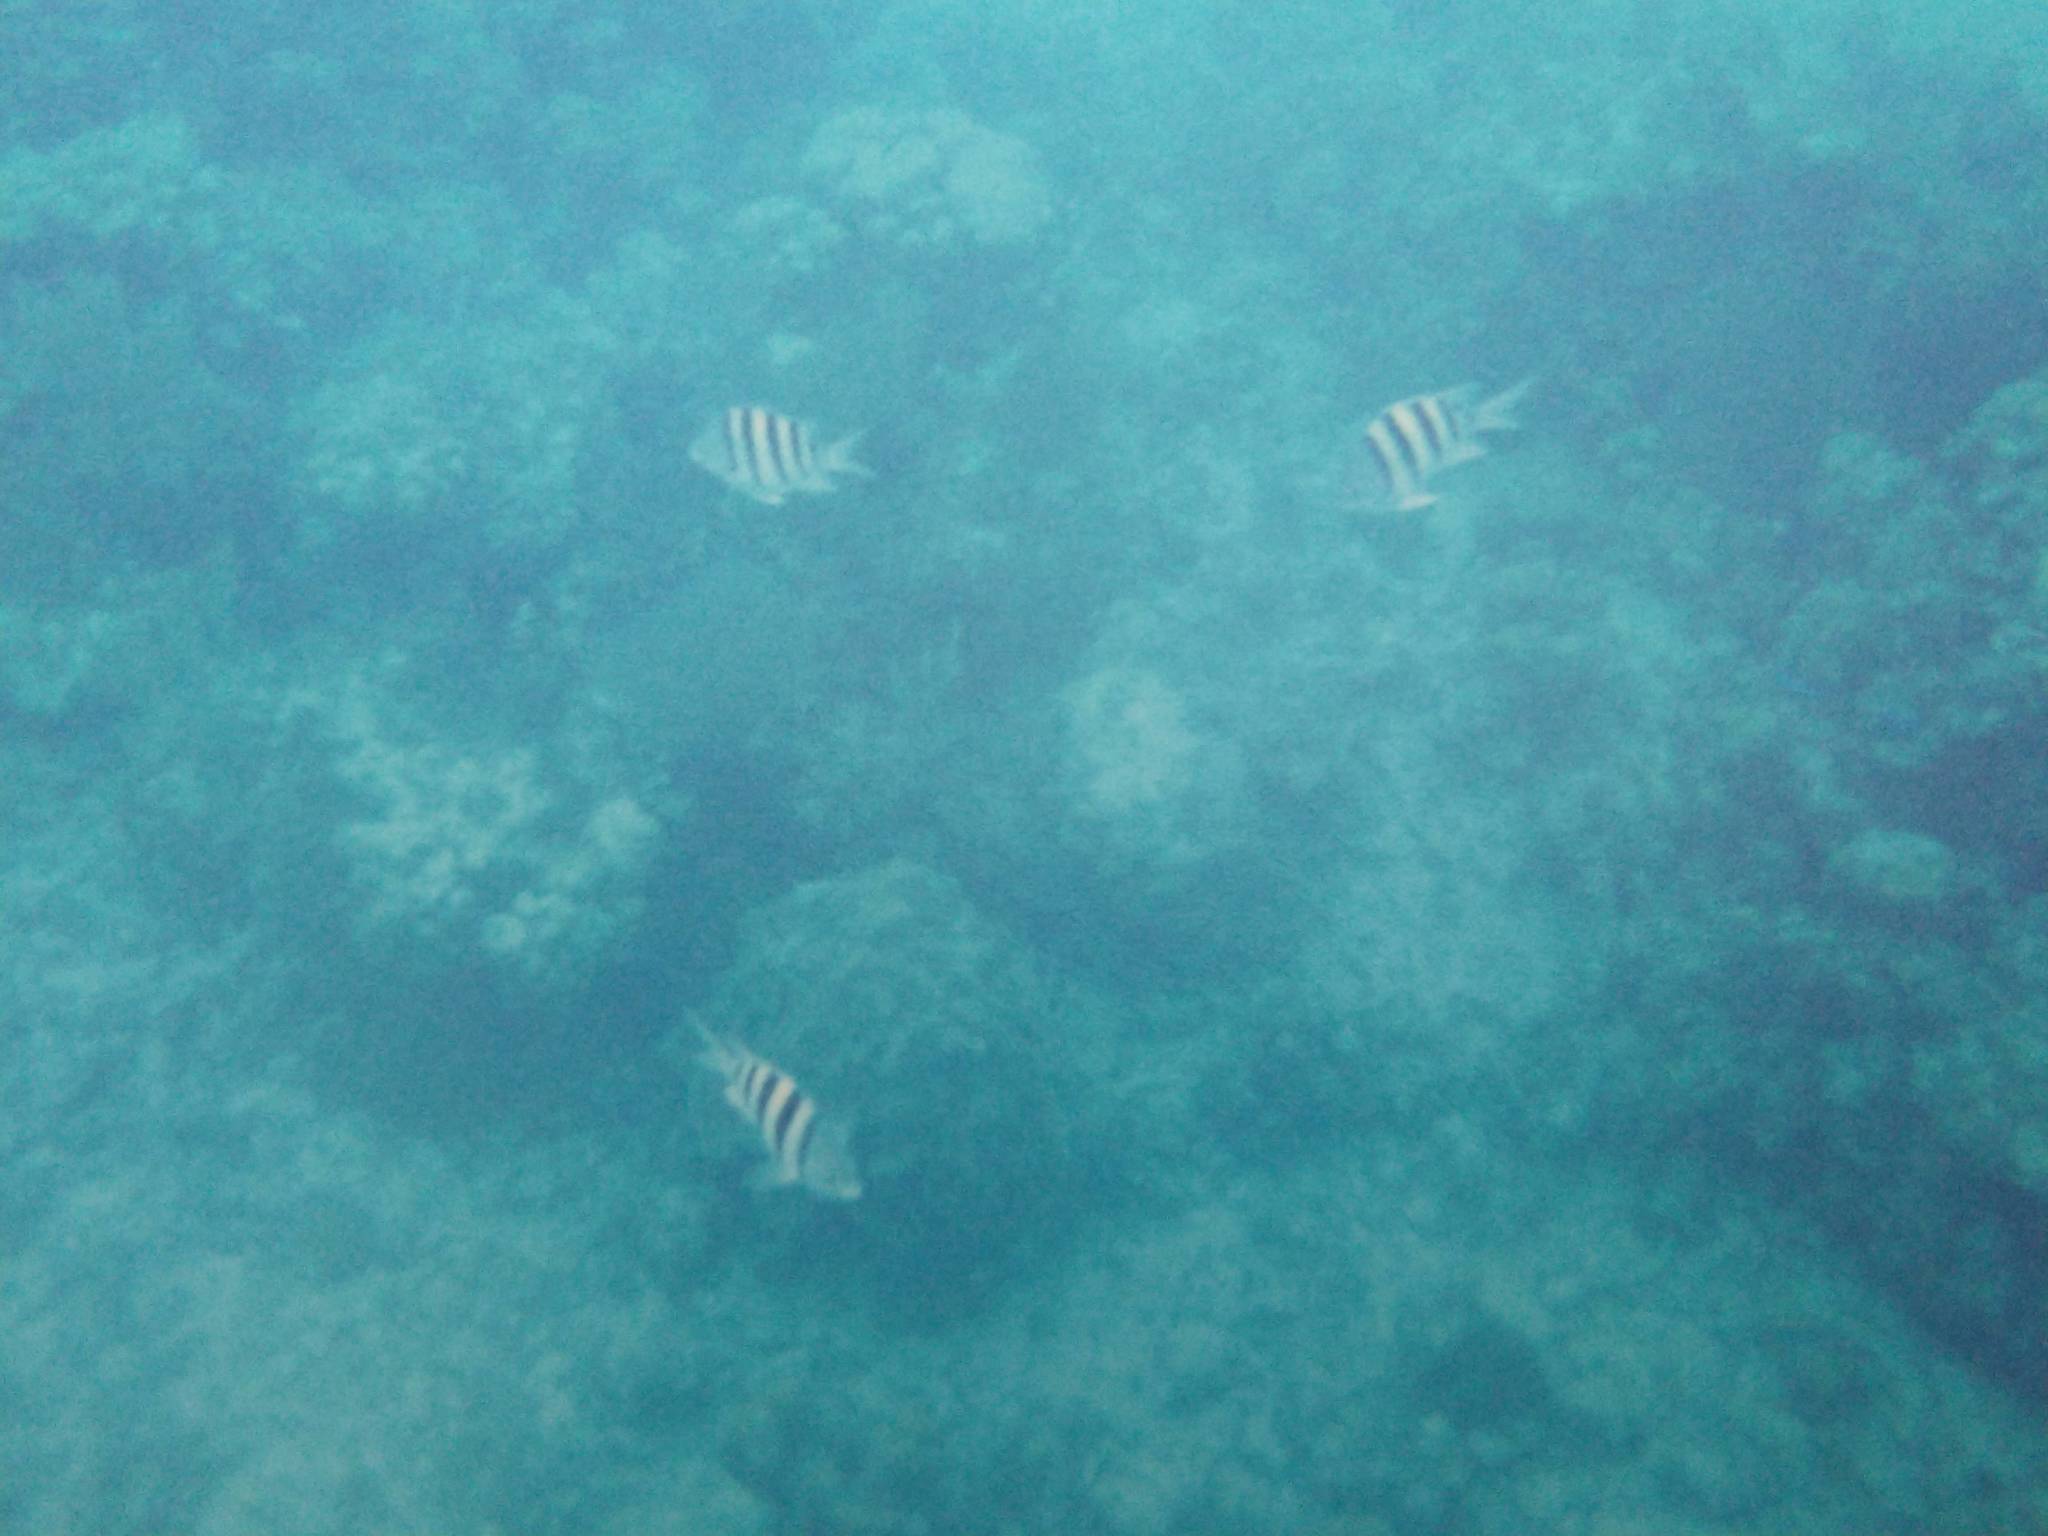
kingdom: Animalia
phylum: Chordata
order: Perciformes
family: Pomacentridae
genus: Abudefduf
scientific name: Abudefduf saxatilis
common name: Sergeant major
